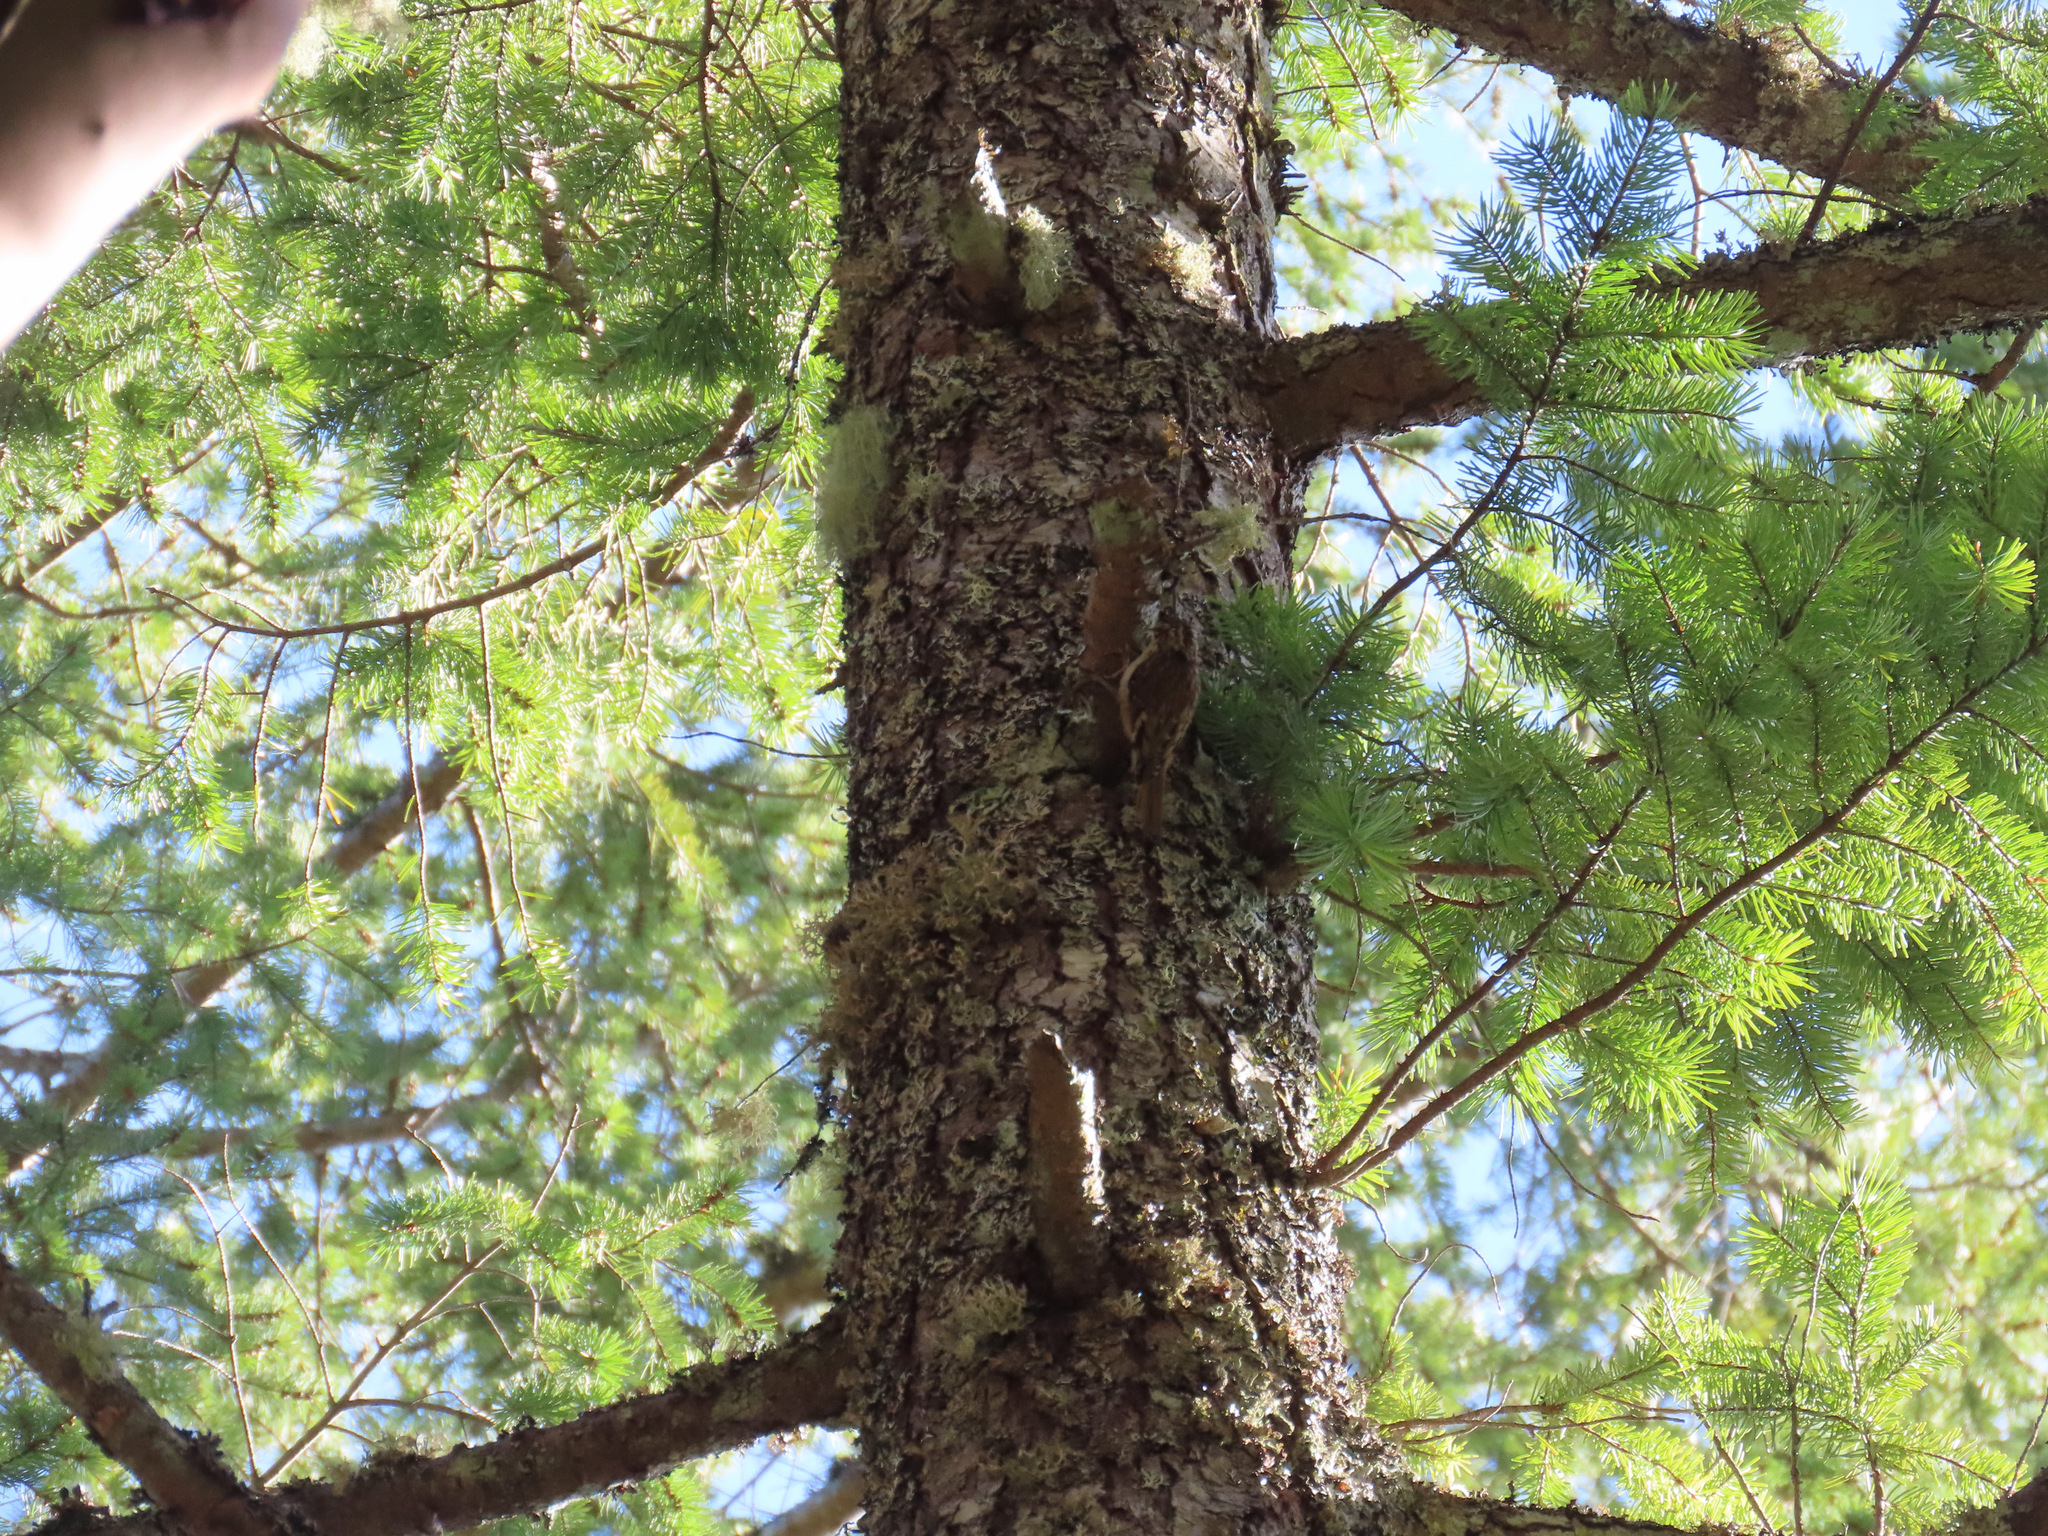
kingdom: Animalia
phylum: Chordata
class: Aves
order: Passeriformes
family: Certhiidae
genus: Certhia
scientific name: Certhia americana
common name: Brown creeper
